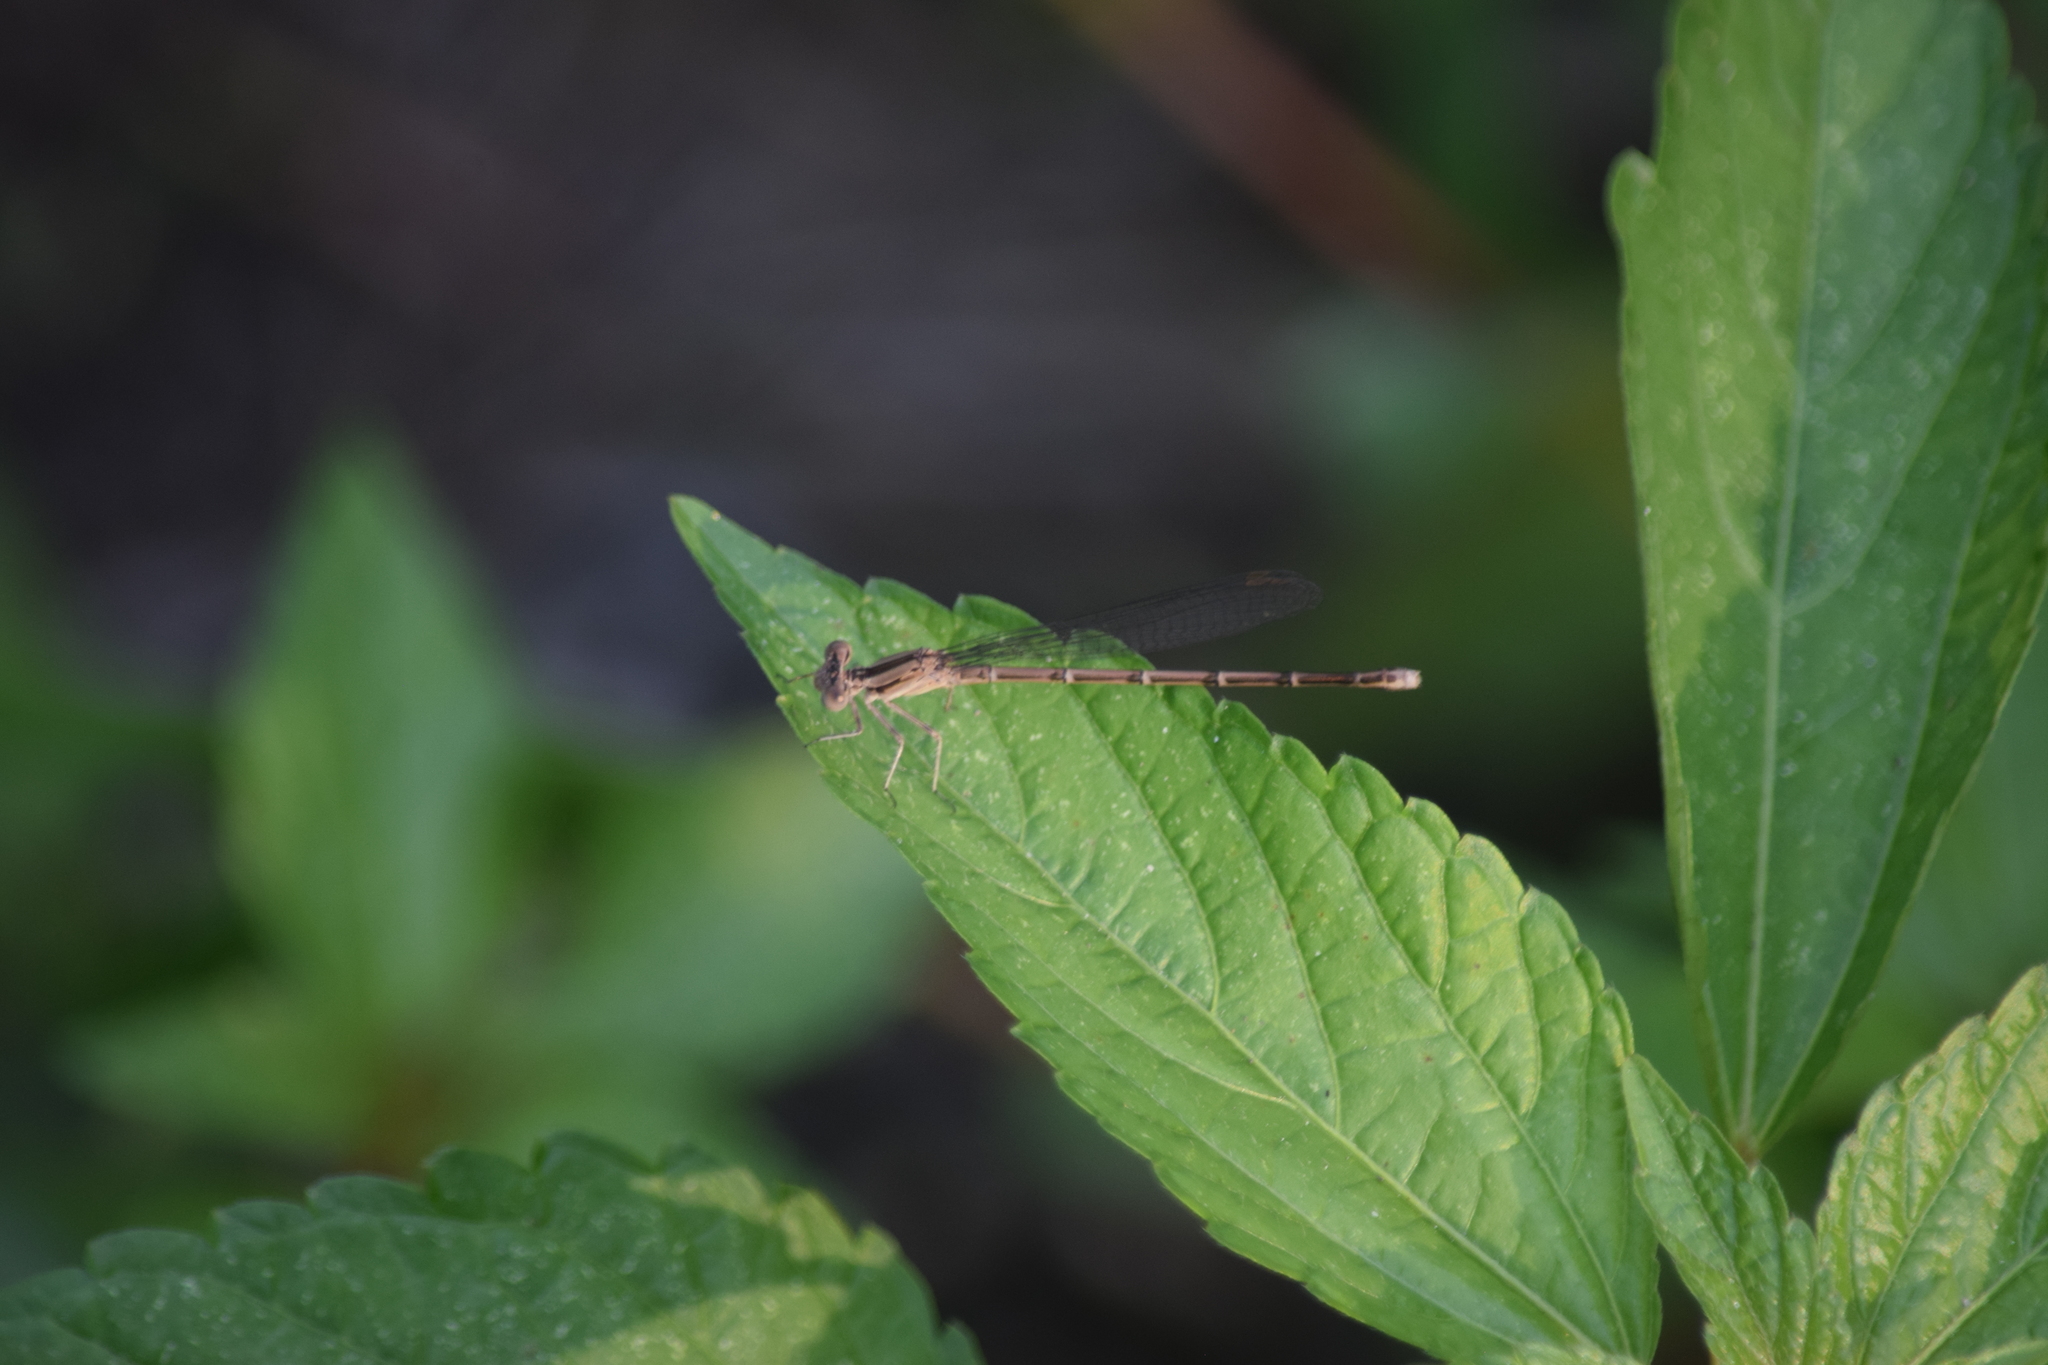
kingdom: Animalia
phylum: Arthropoda
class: Insecta
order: Odonata
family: Coenagrionidae
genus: Argia
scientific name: Argia fumipennis
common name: Variable dancer
